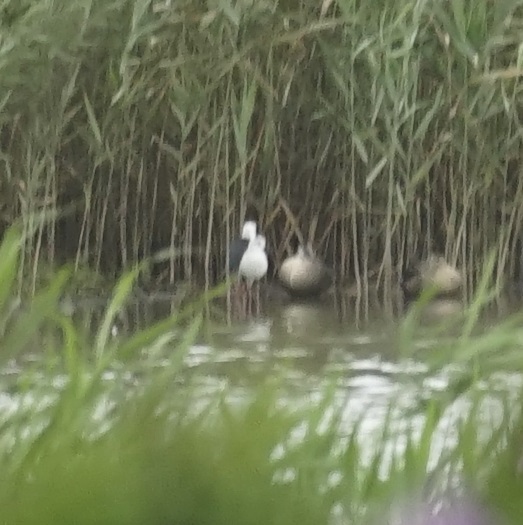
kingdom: Animalia
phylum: Chordata
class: Aves
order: Charadriiformes
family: Recurvirostridae
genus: Himantopus
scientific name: Himantopus himantopus
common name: Black-winged stilt
